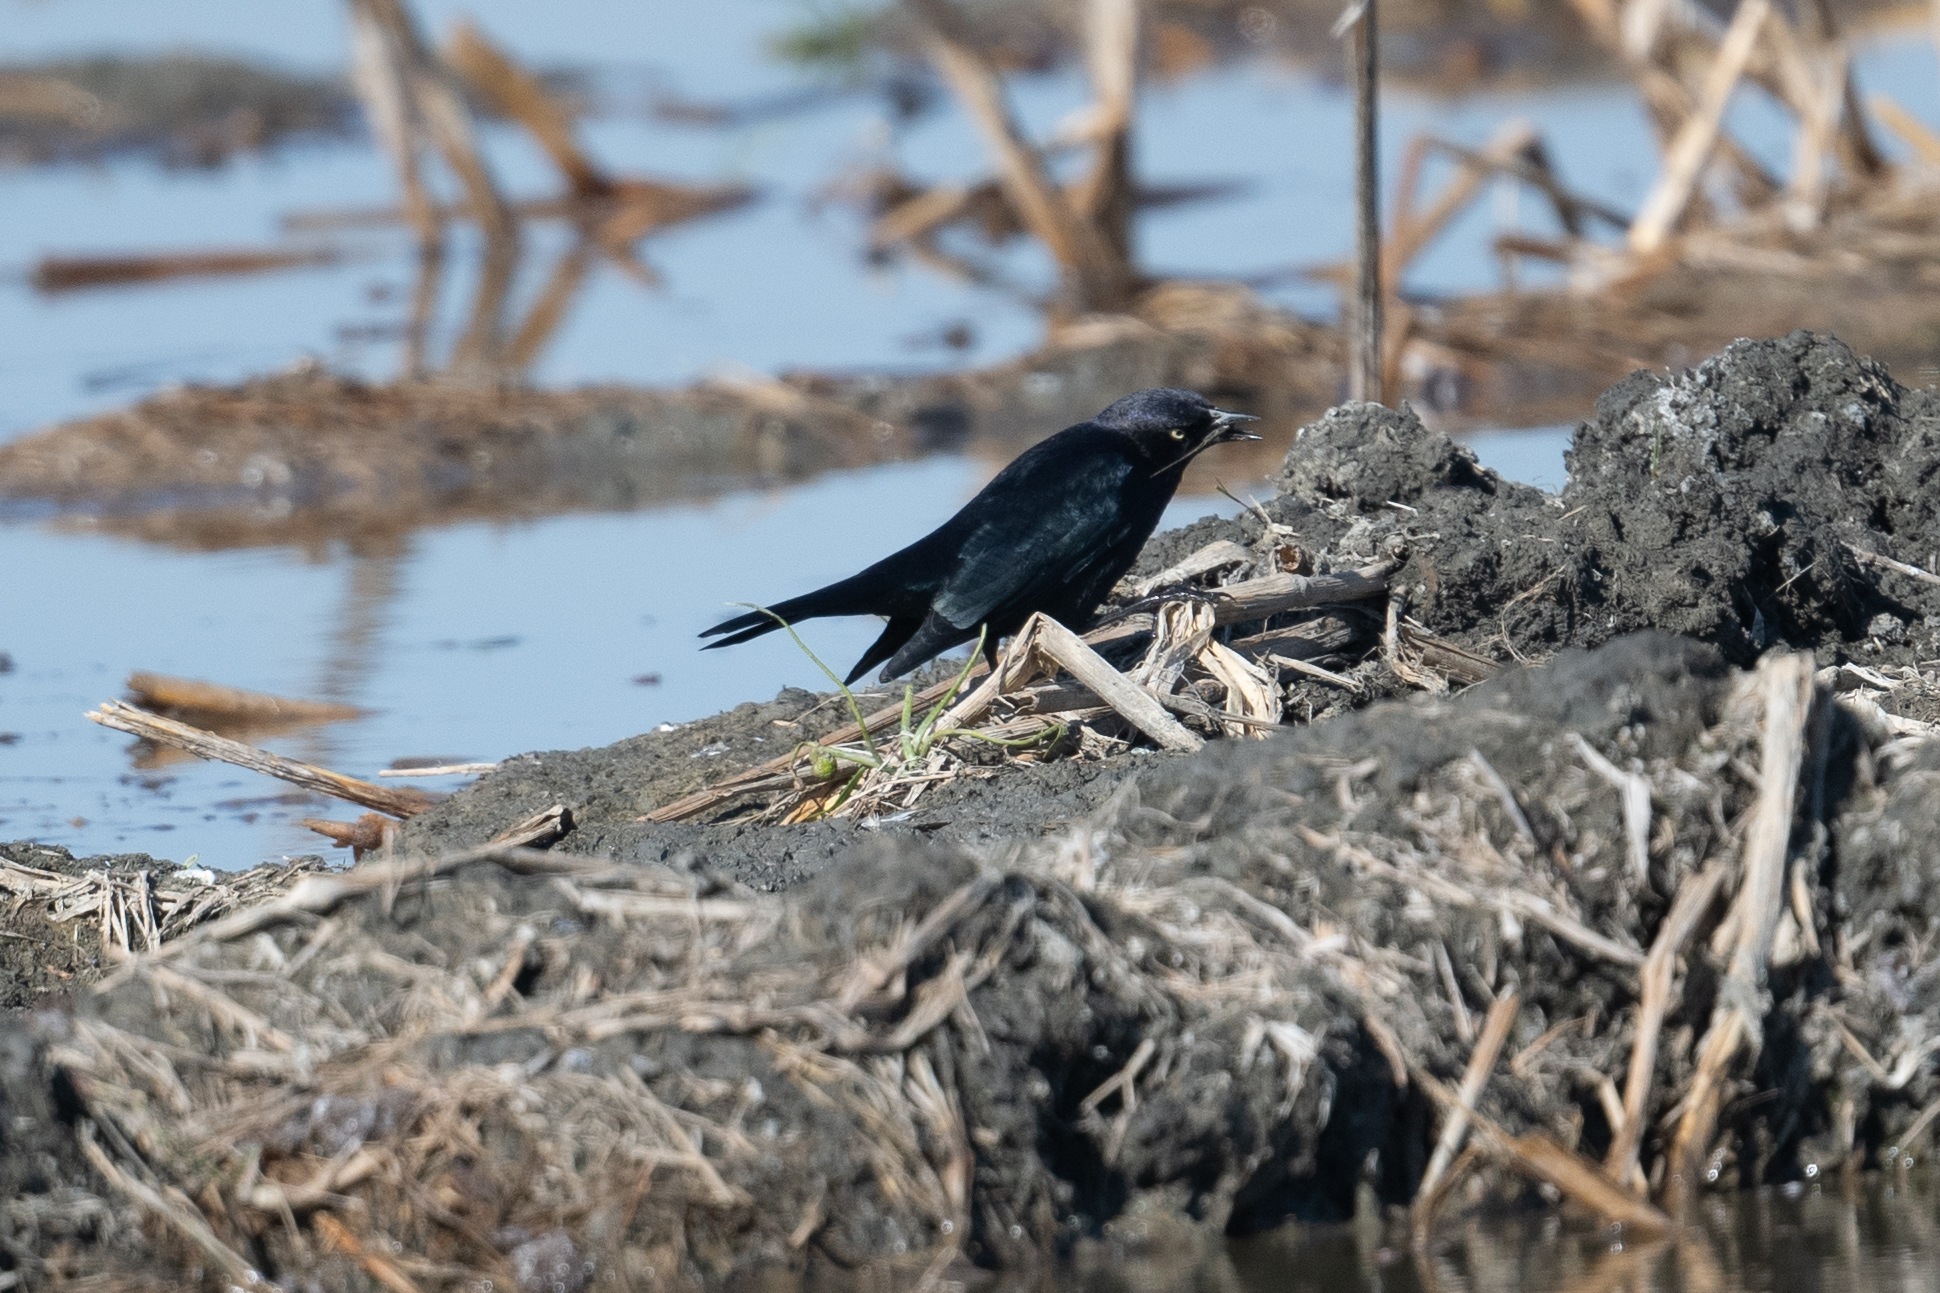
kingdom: Animalia
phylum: Chordata
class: Aves
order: Passeriformes
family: Icteridae
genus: Euphagus
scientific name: Euphagus cyanocephalus
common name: Brewer's blackbird
